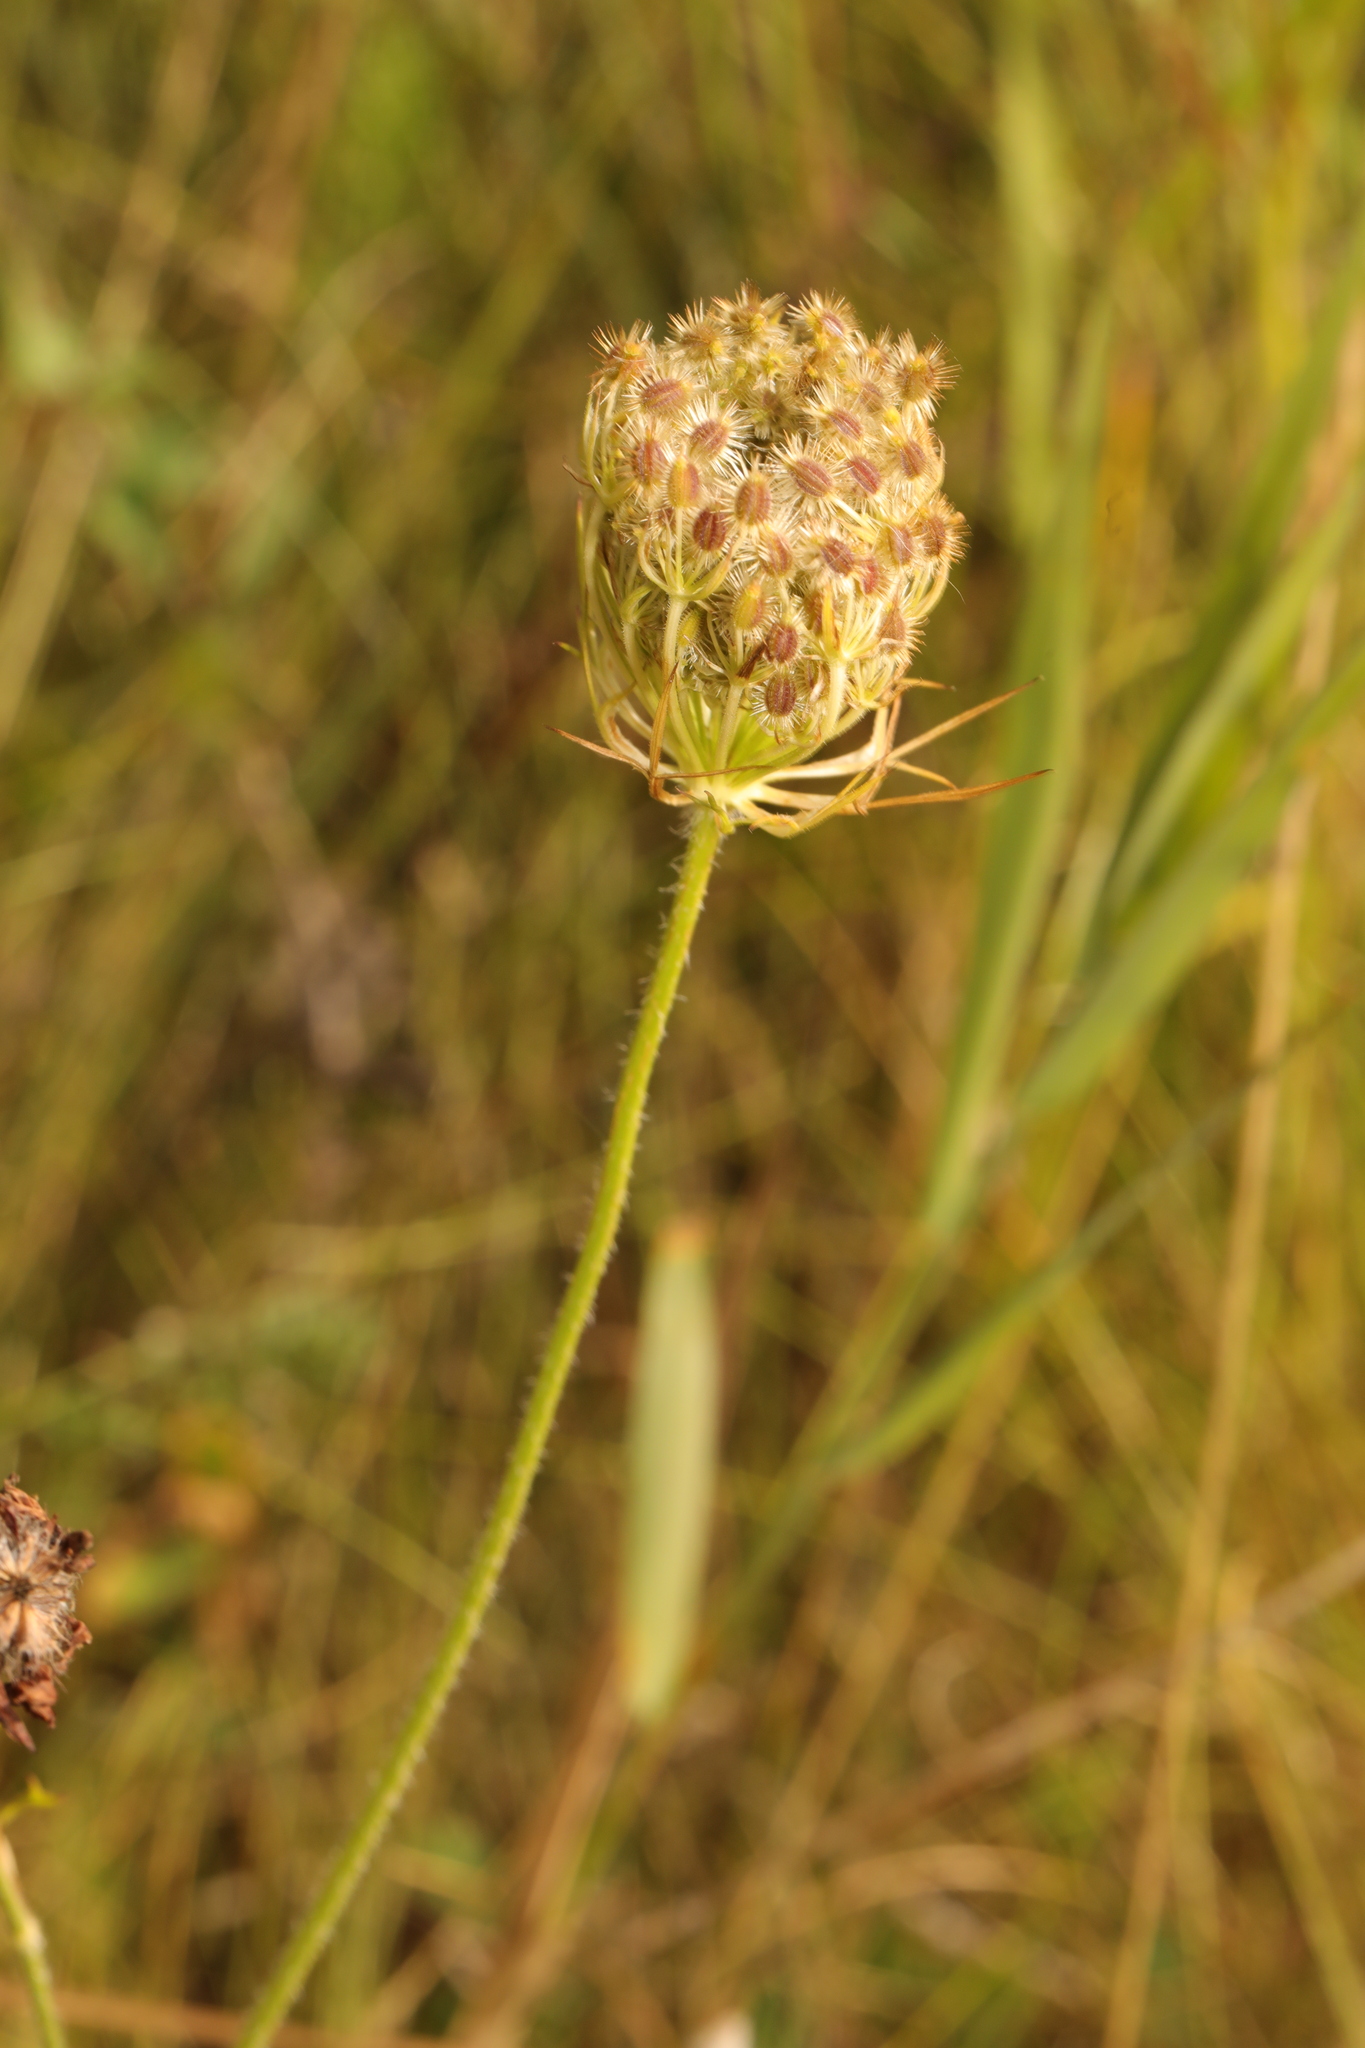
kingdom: Plantae
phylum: Tracheophyta
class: Magnoliopsida
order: Apiales
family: Apiaceae
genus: Daucus
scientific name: Daucus carota
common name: Wild carrot
